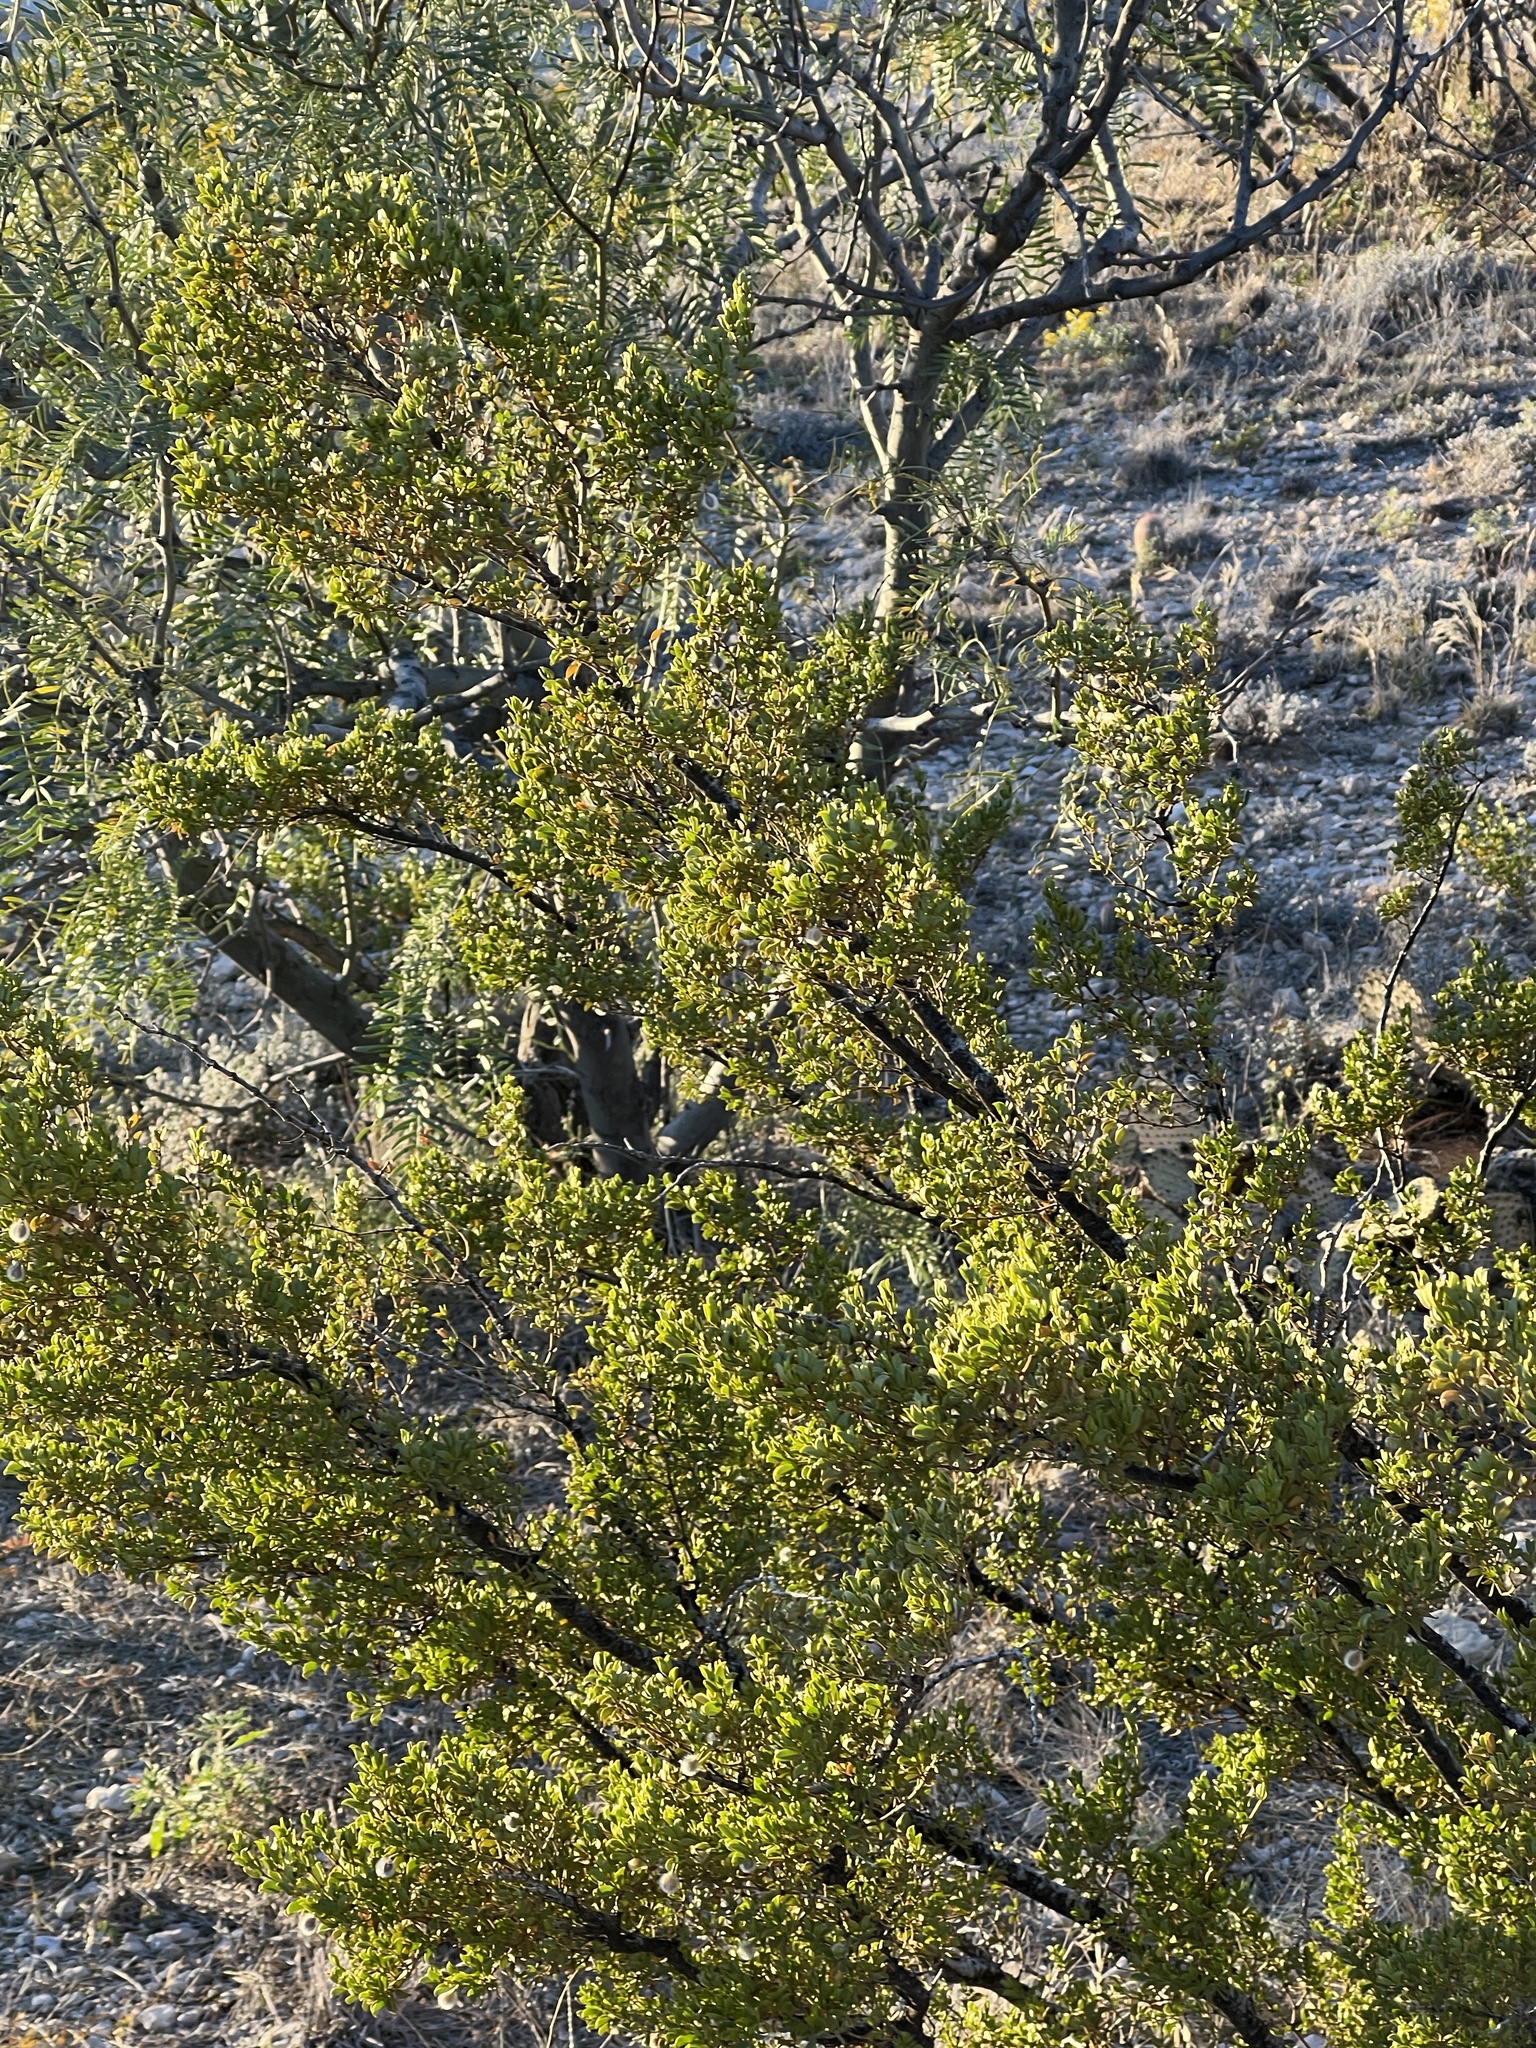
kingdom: Plantae
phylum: Tracheophyta
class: Magnoliopsida
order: Zygophyllales
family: Zygophyllaceae
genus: Larrea
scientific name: Larrea tridentata
